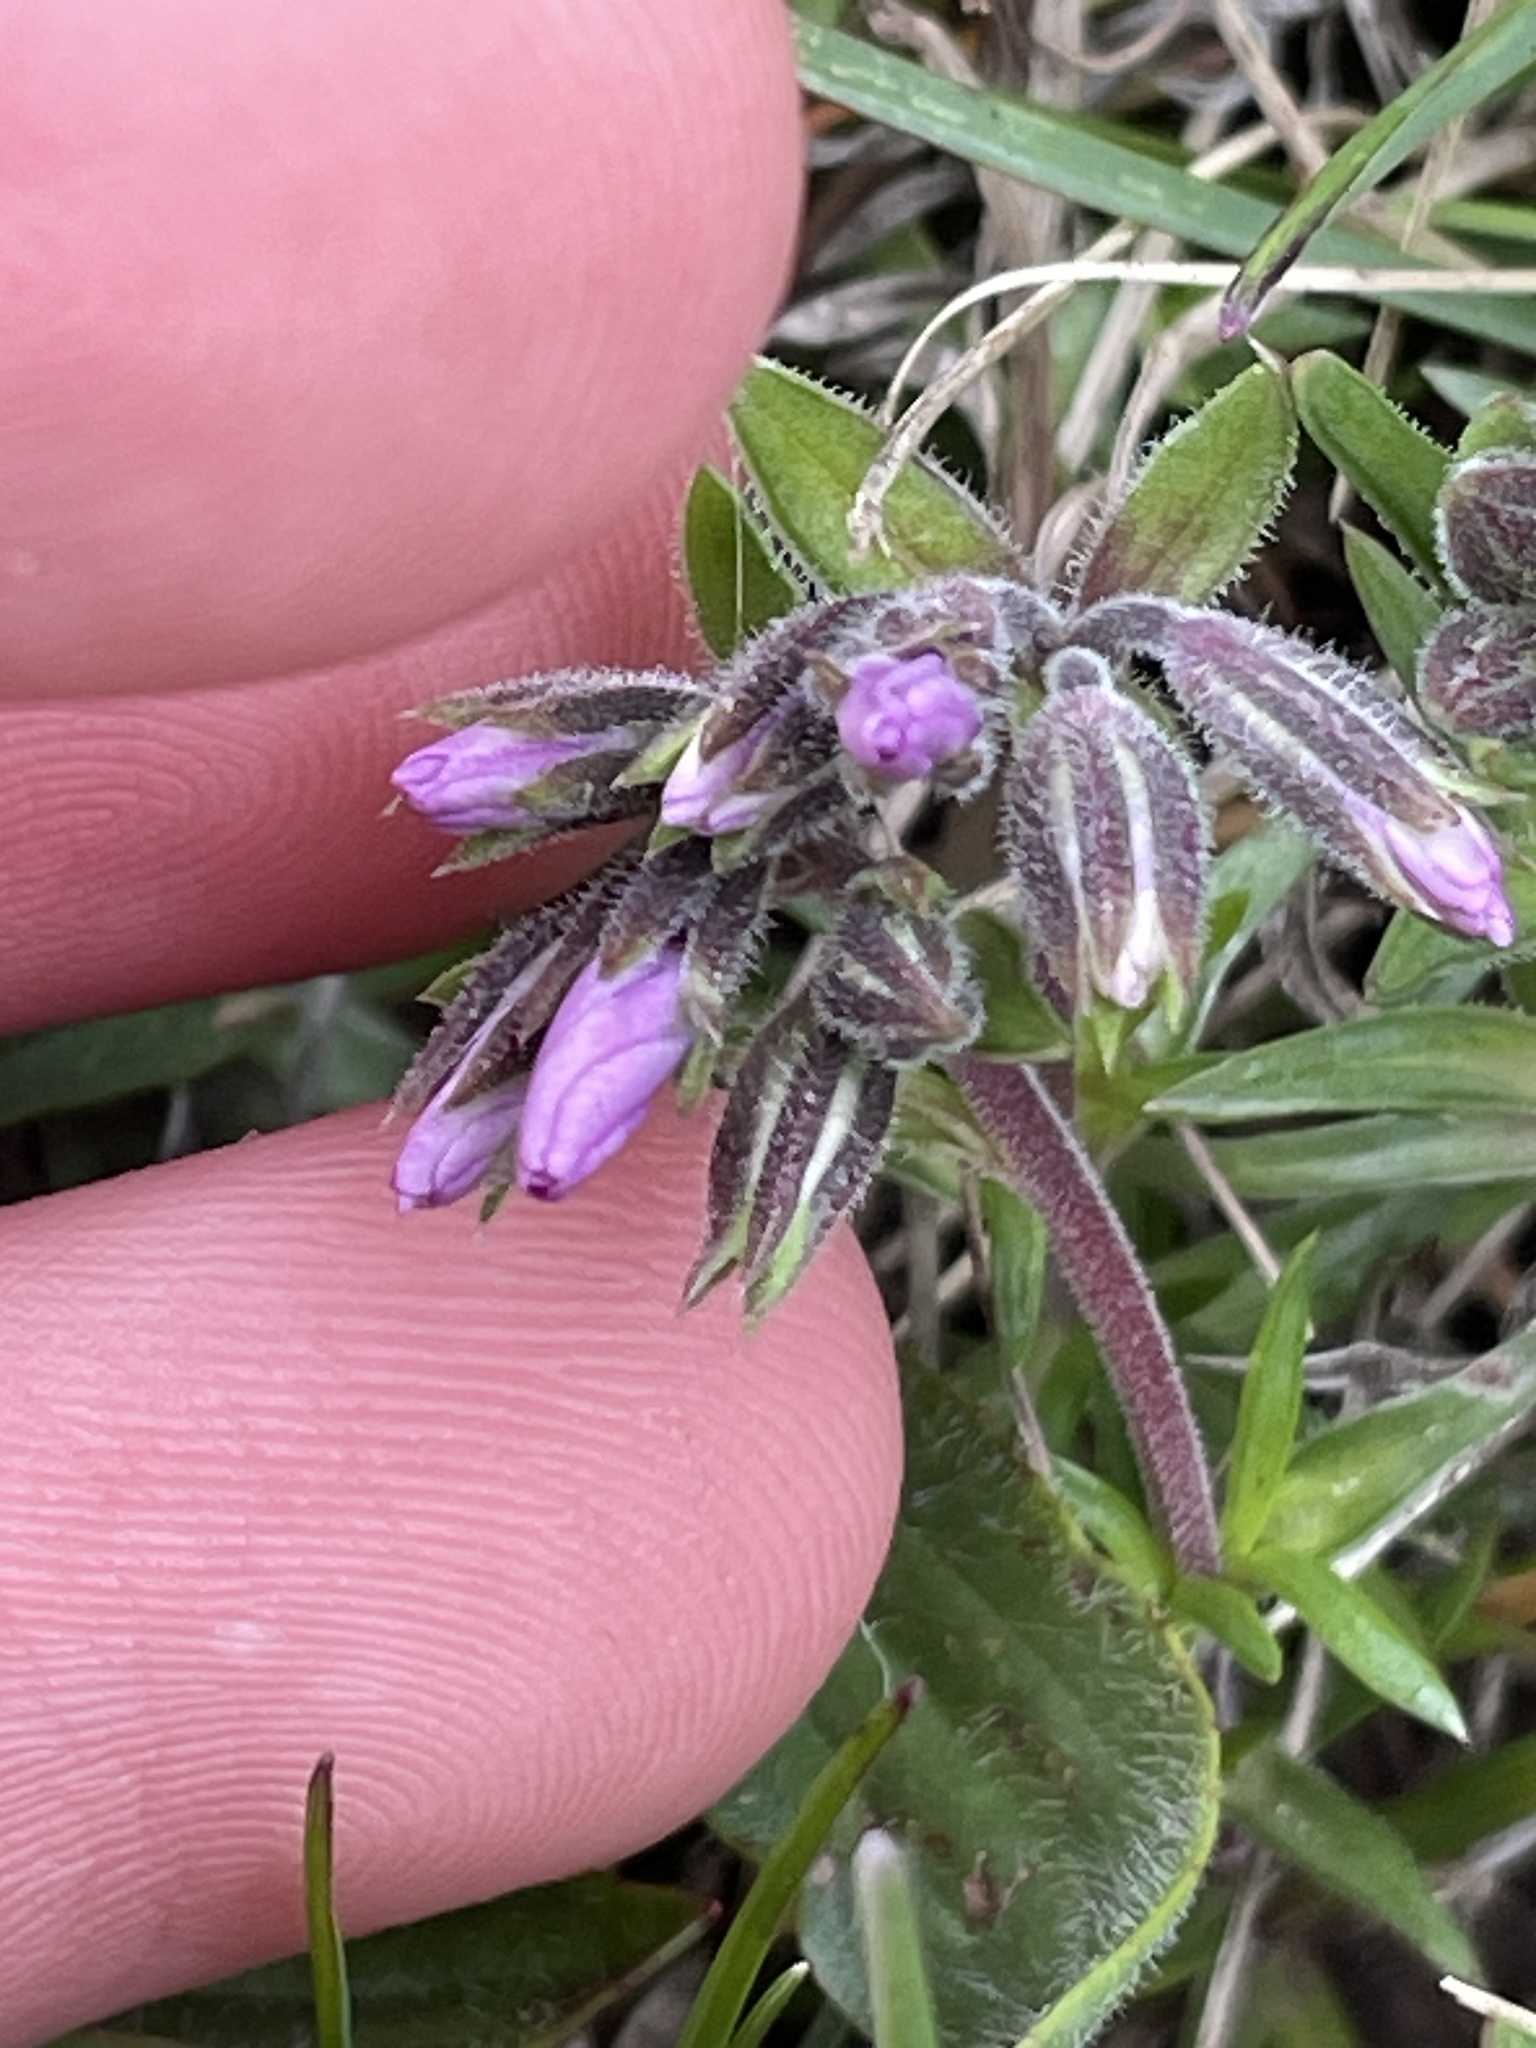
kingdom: Plantae
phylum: Tracheophyta
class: Magnoliopsida
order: Ericales
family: Polemoniaceae
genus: Phlox
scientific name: Phlox subulata
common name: Moss phlox
